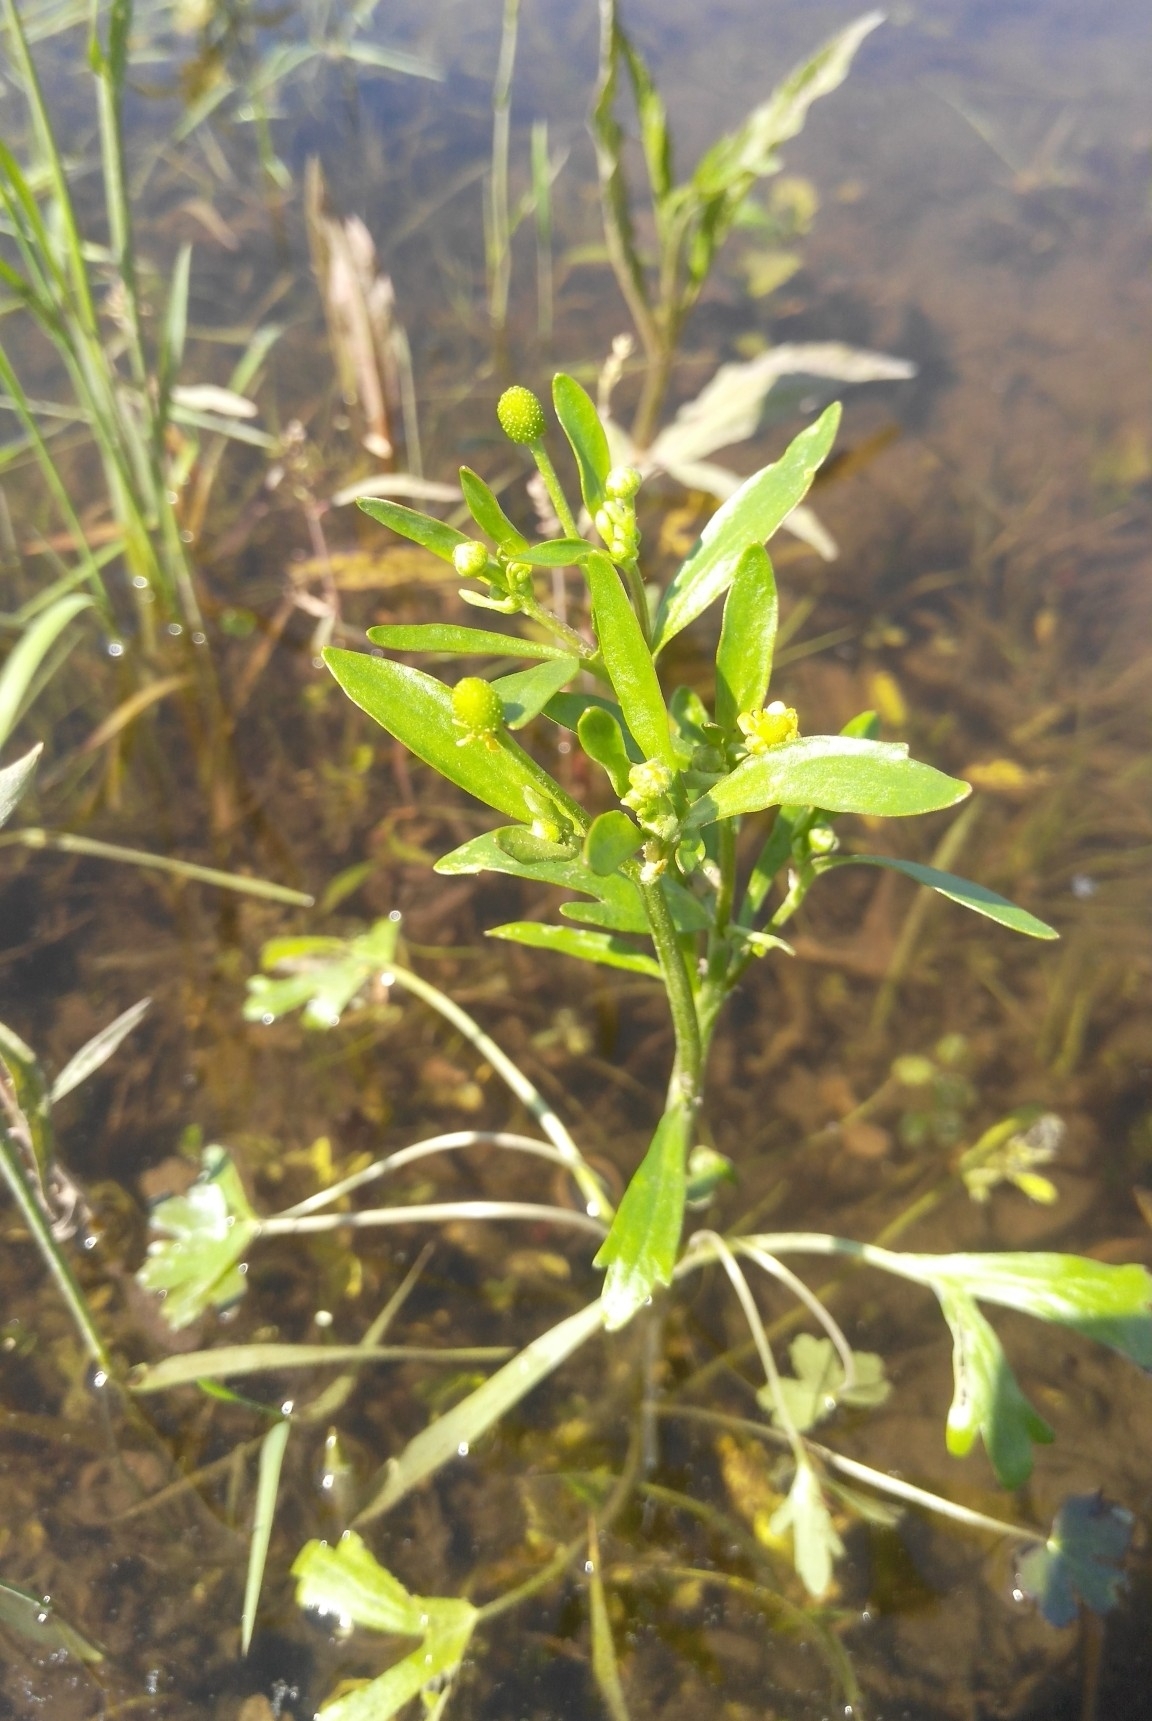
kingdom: Plantae
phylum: Tracheophyta
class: Magnoliopsida
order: Ranunculales
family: Ranunculaceae
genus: Ranunculus
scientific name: Ranunculus sceleratus
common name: Celery-leaved buttercup
